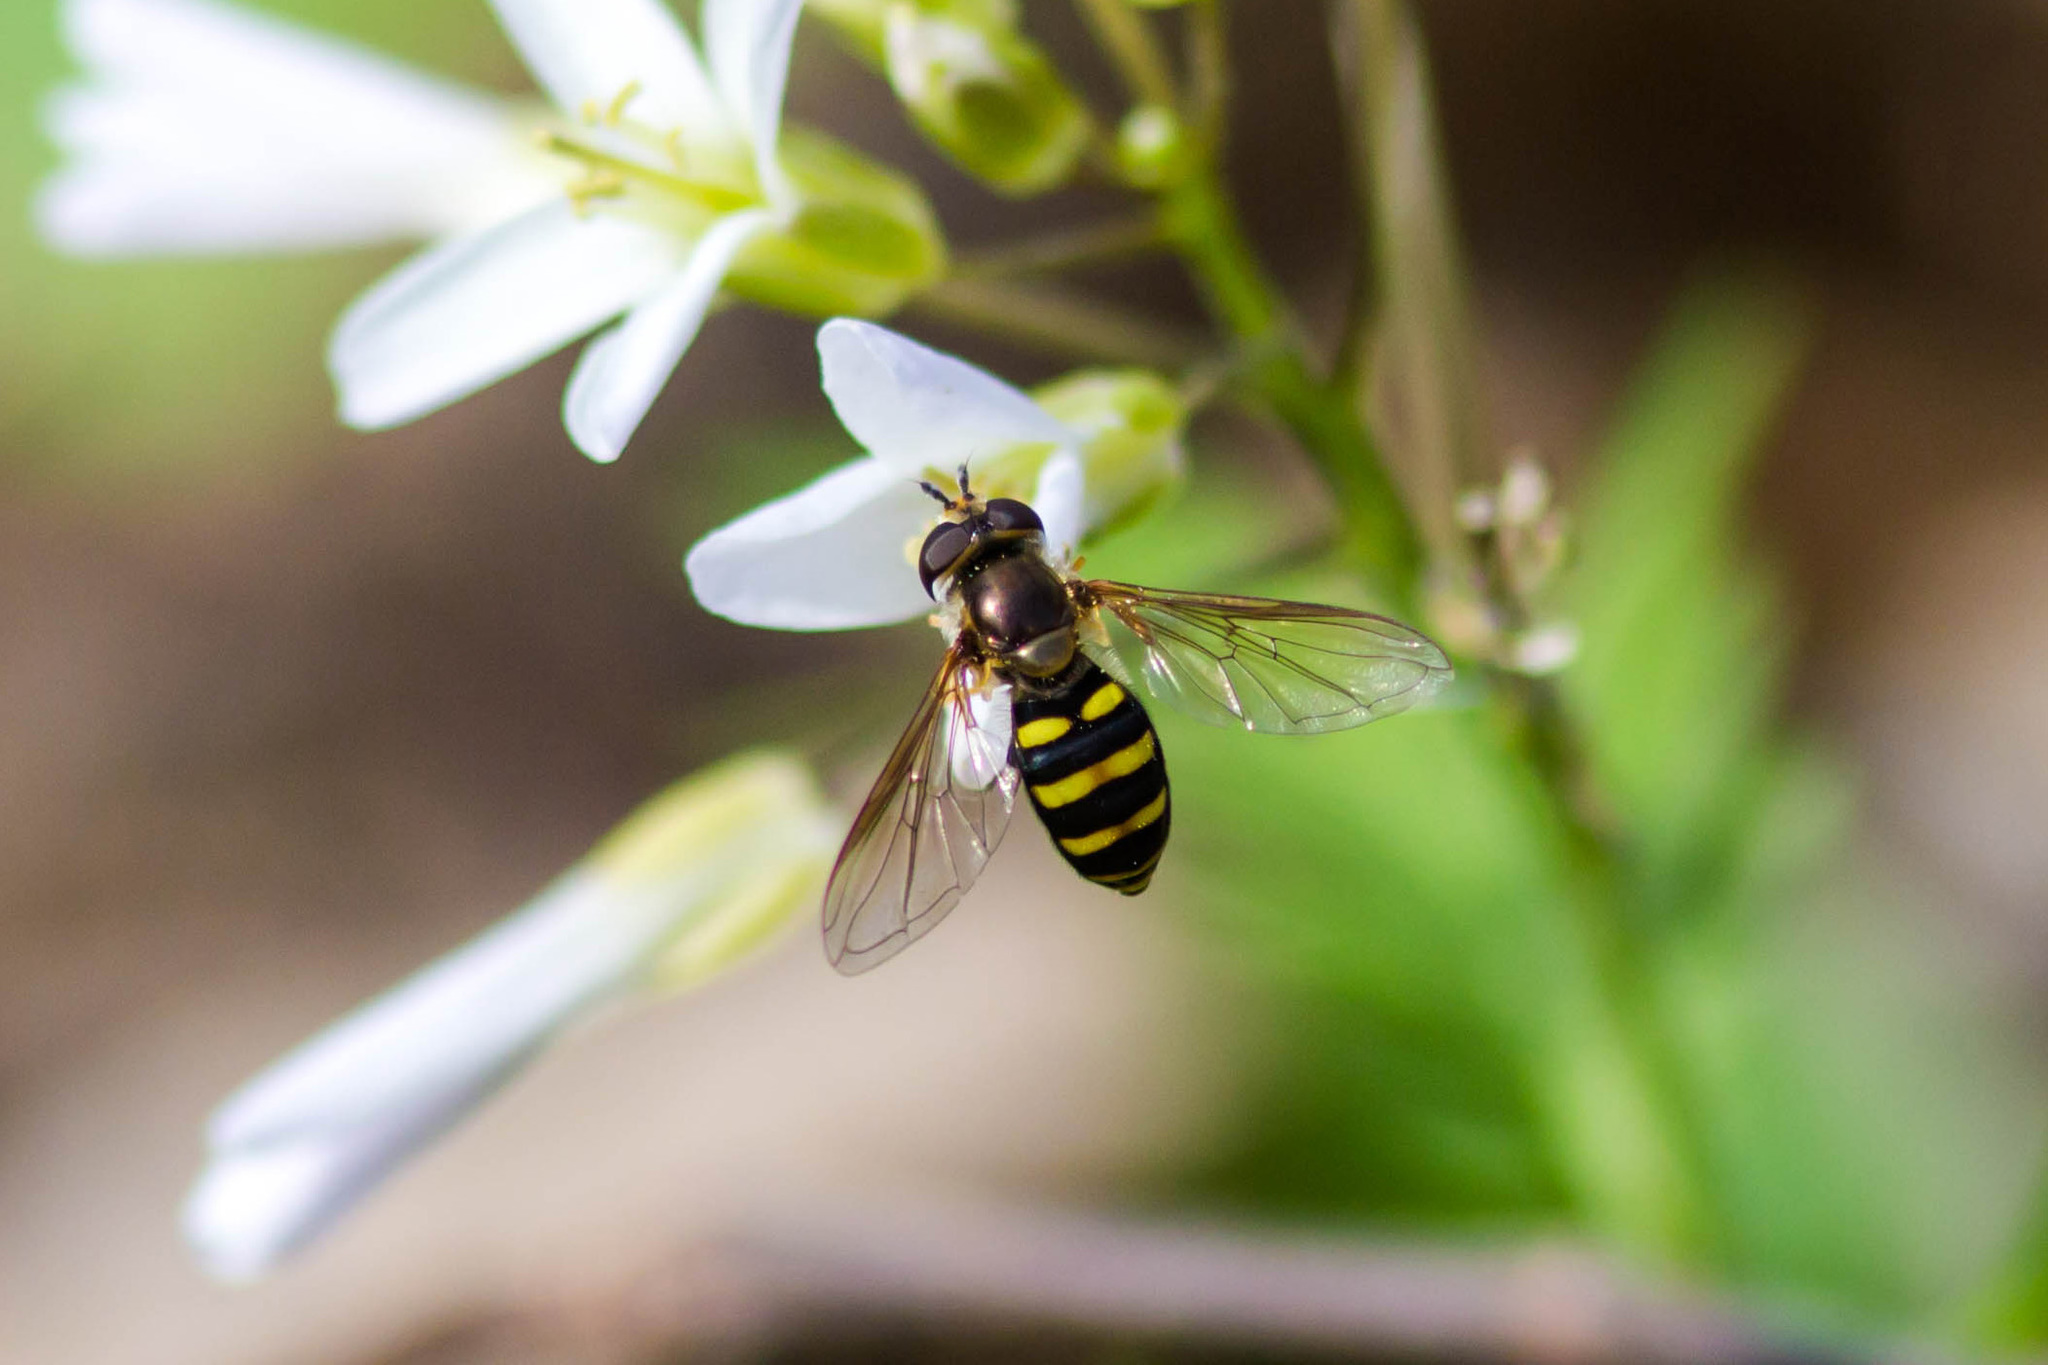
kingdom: Animalia
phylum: Arthropoda
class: Insecta
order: Diptera
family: Syrphidae
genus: Eupeodes
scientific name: Eupeodes
